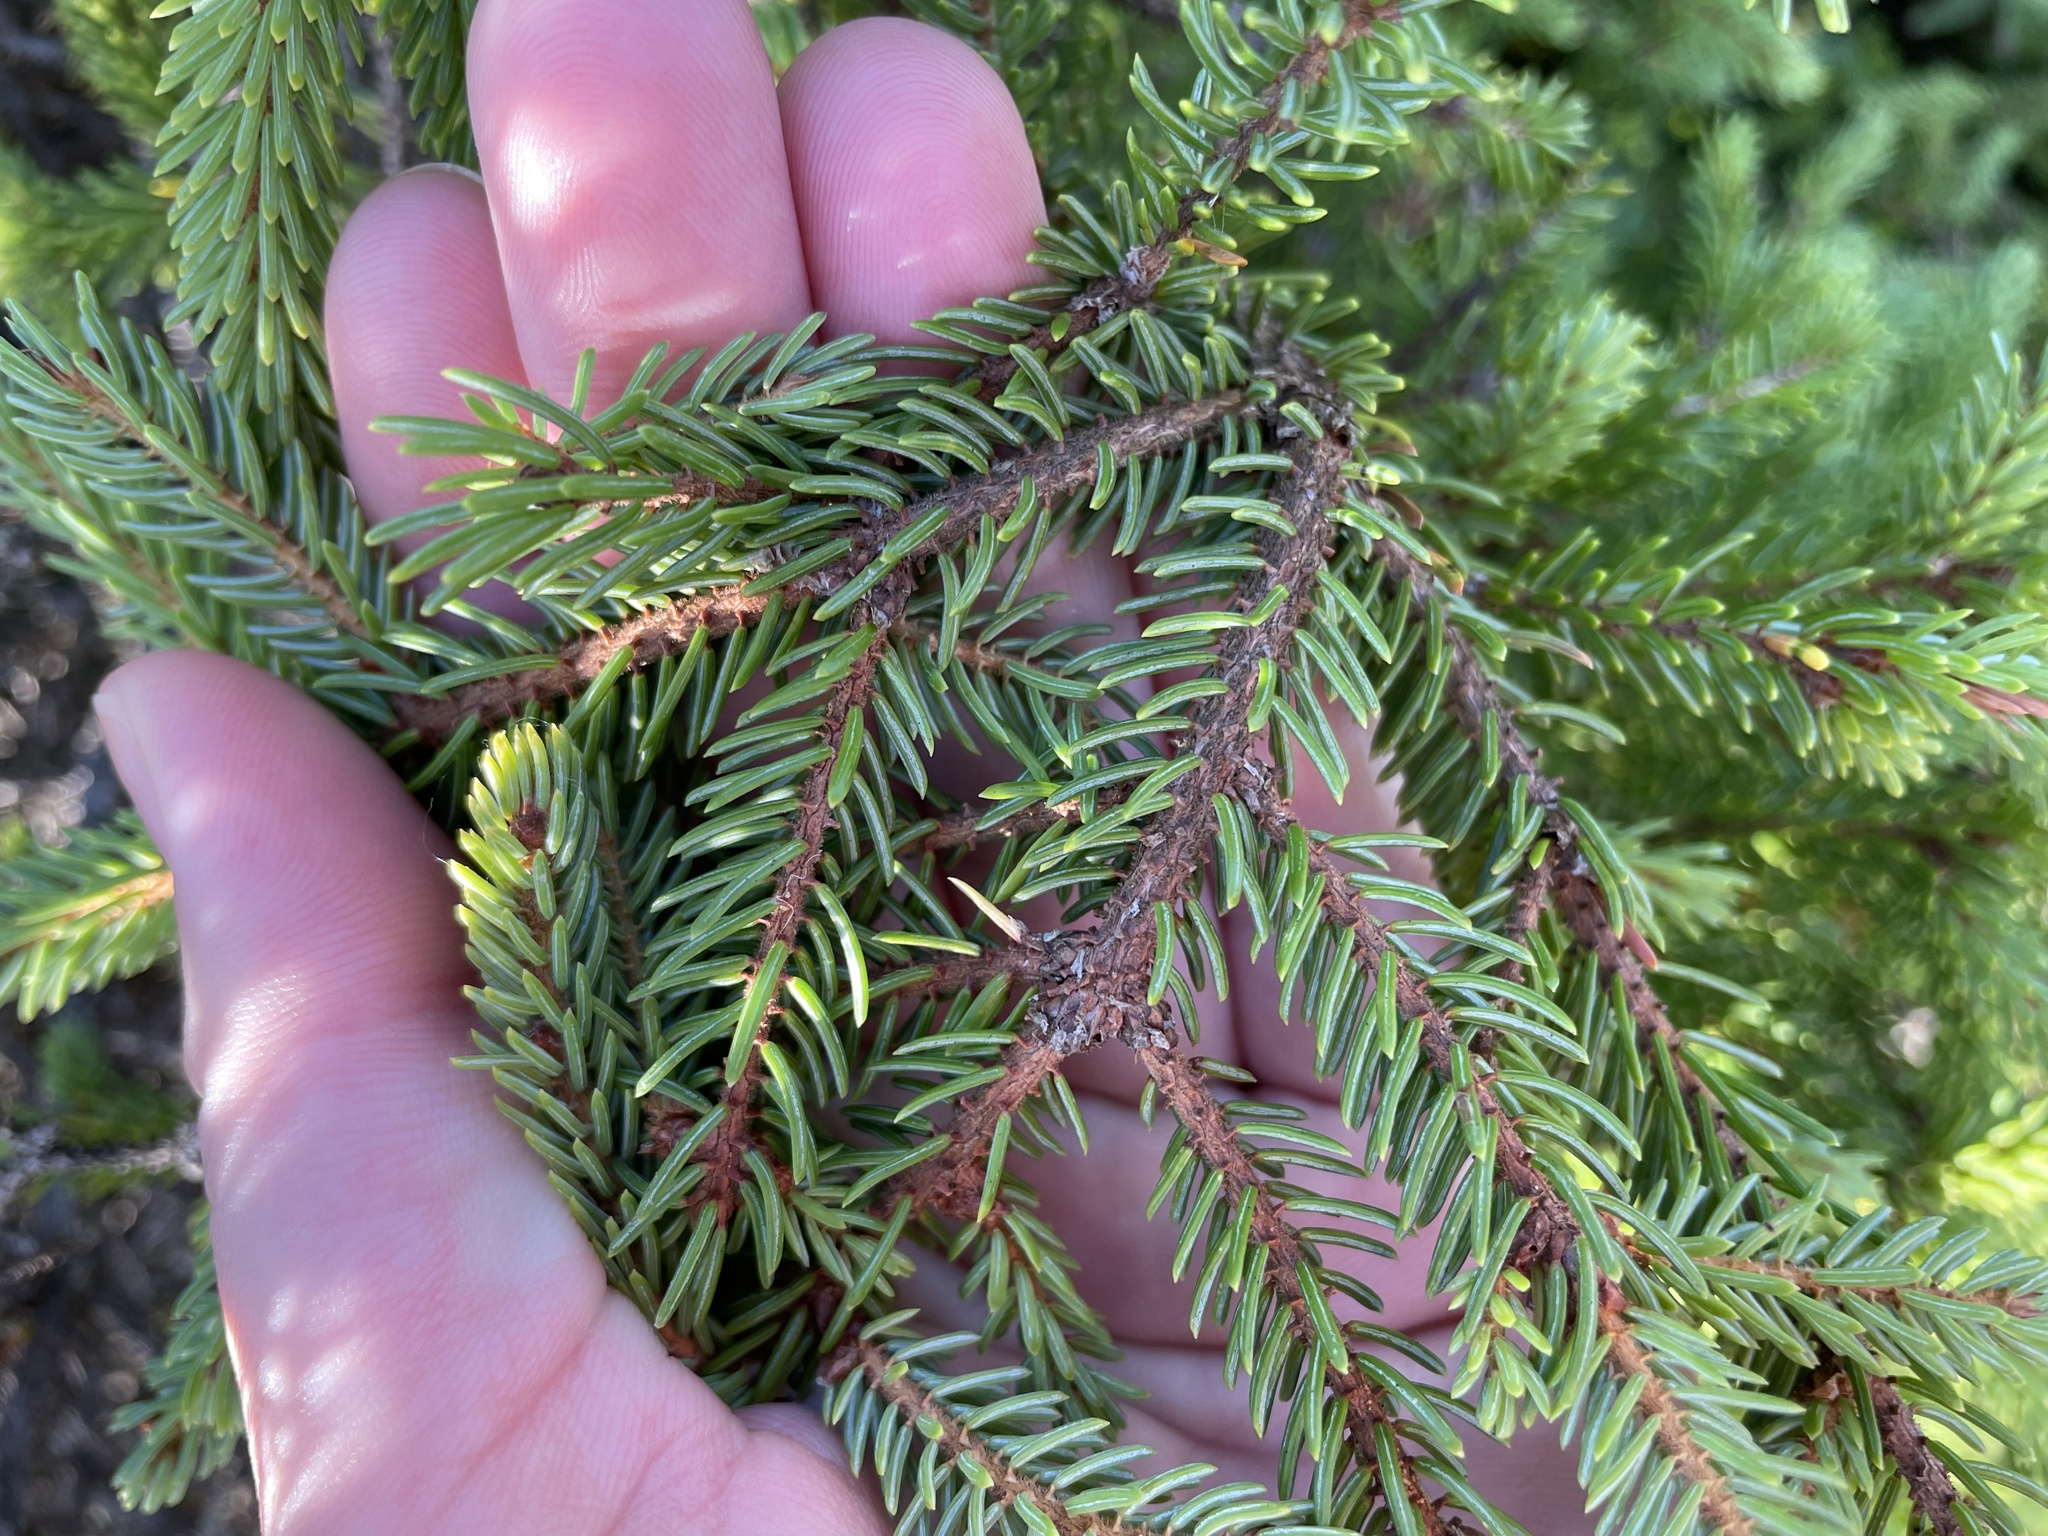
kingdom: Plantae
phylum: Tracheophyta
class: Pinopsida
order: Pinales
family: Pinaceae
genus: Picea
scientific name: Picea mariana
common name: Black spruce
